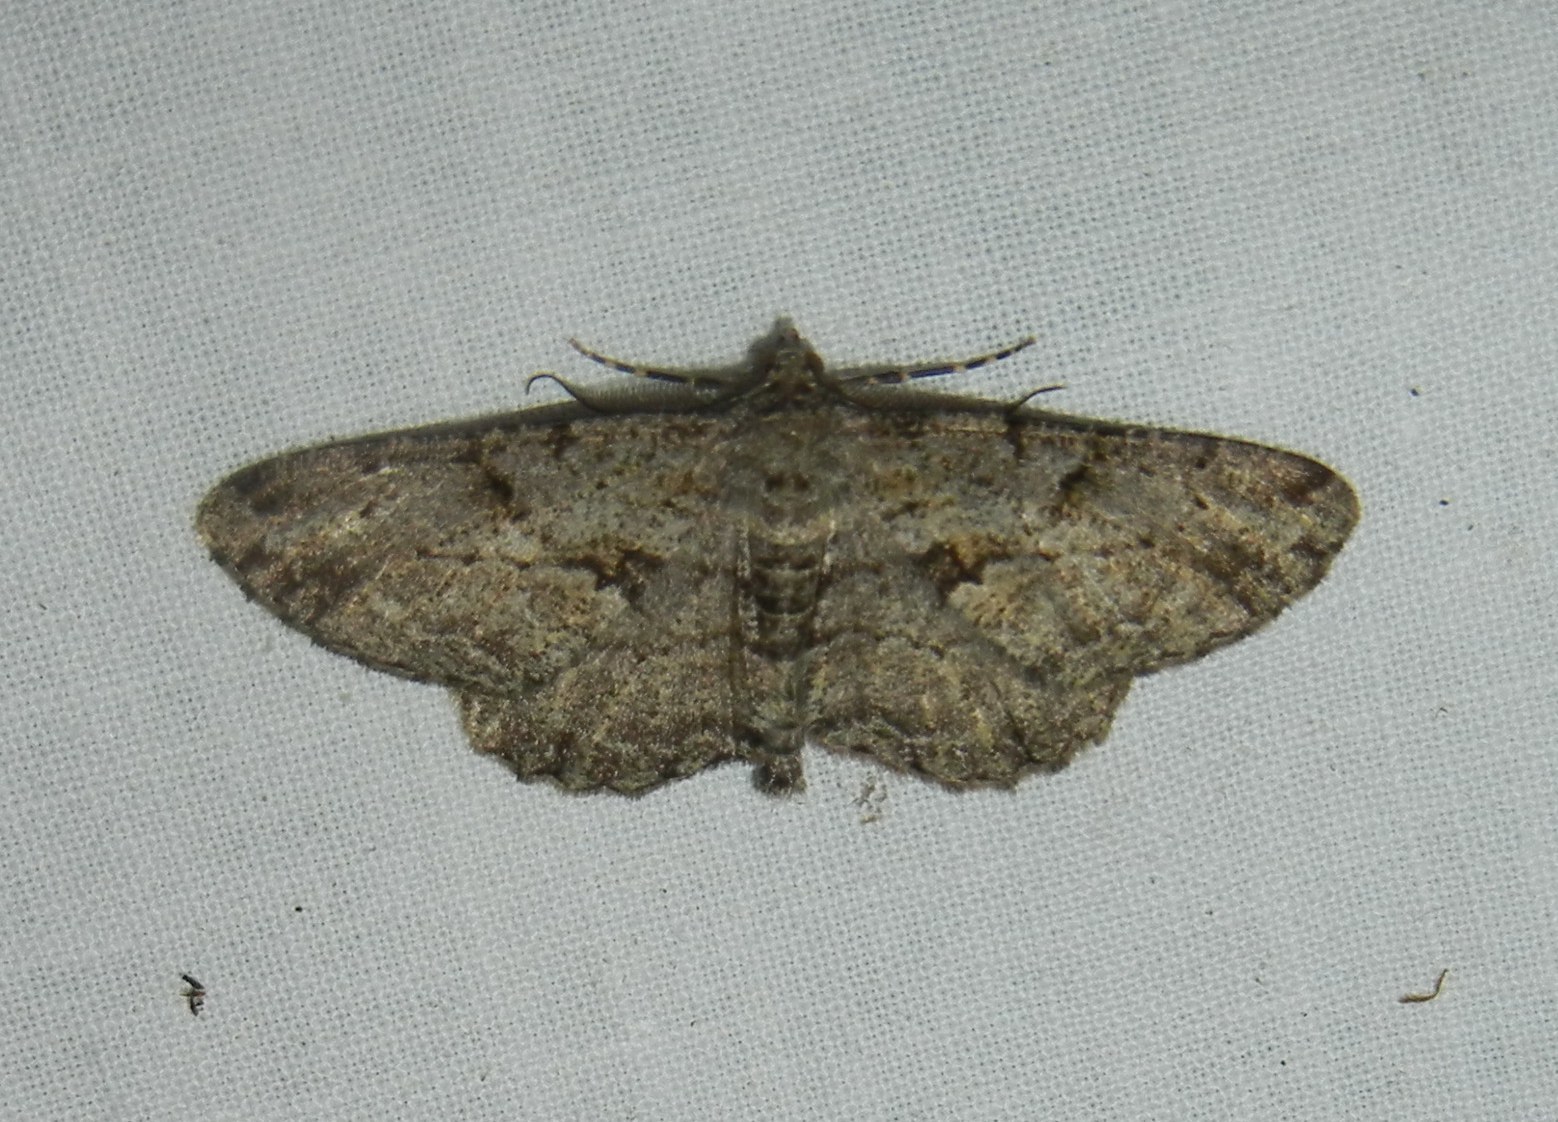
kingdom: Animalia
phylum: Arthropoda
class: Insecta
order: Lepidoptera
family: Geometridae
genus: Peribatodes
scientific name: Peribatodes rhomboidaria
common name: Willow beauty
